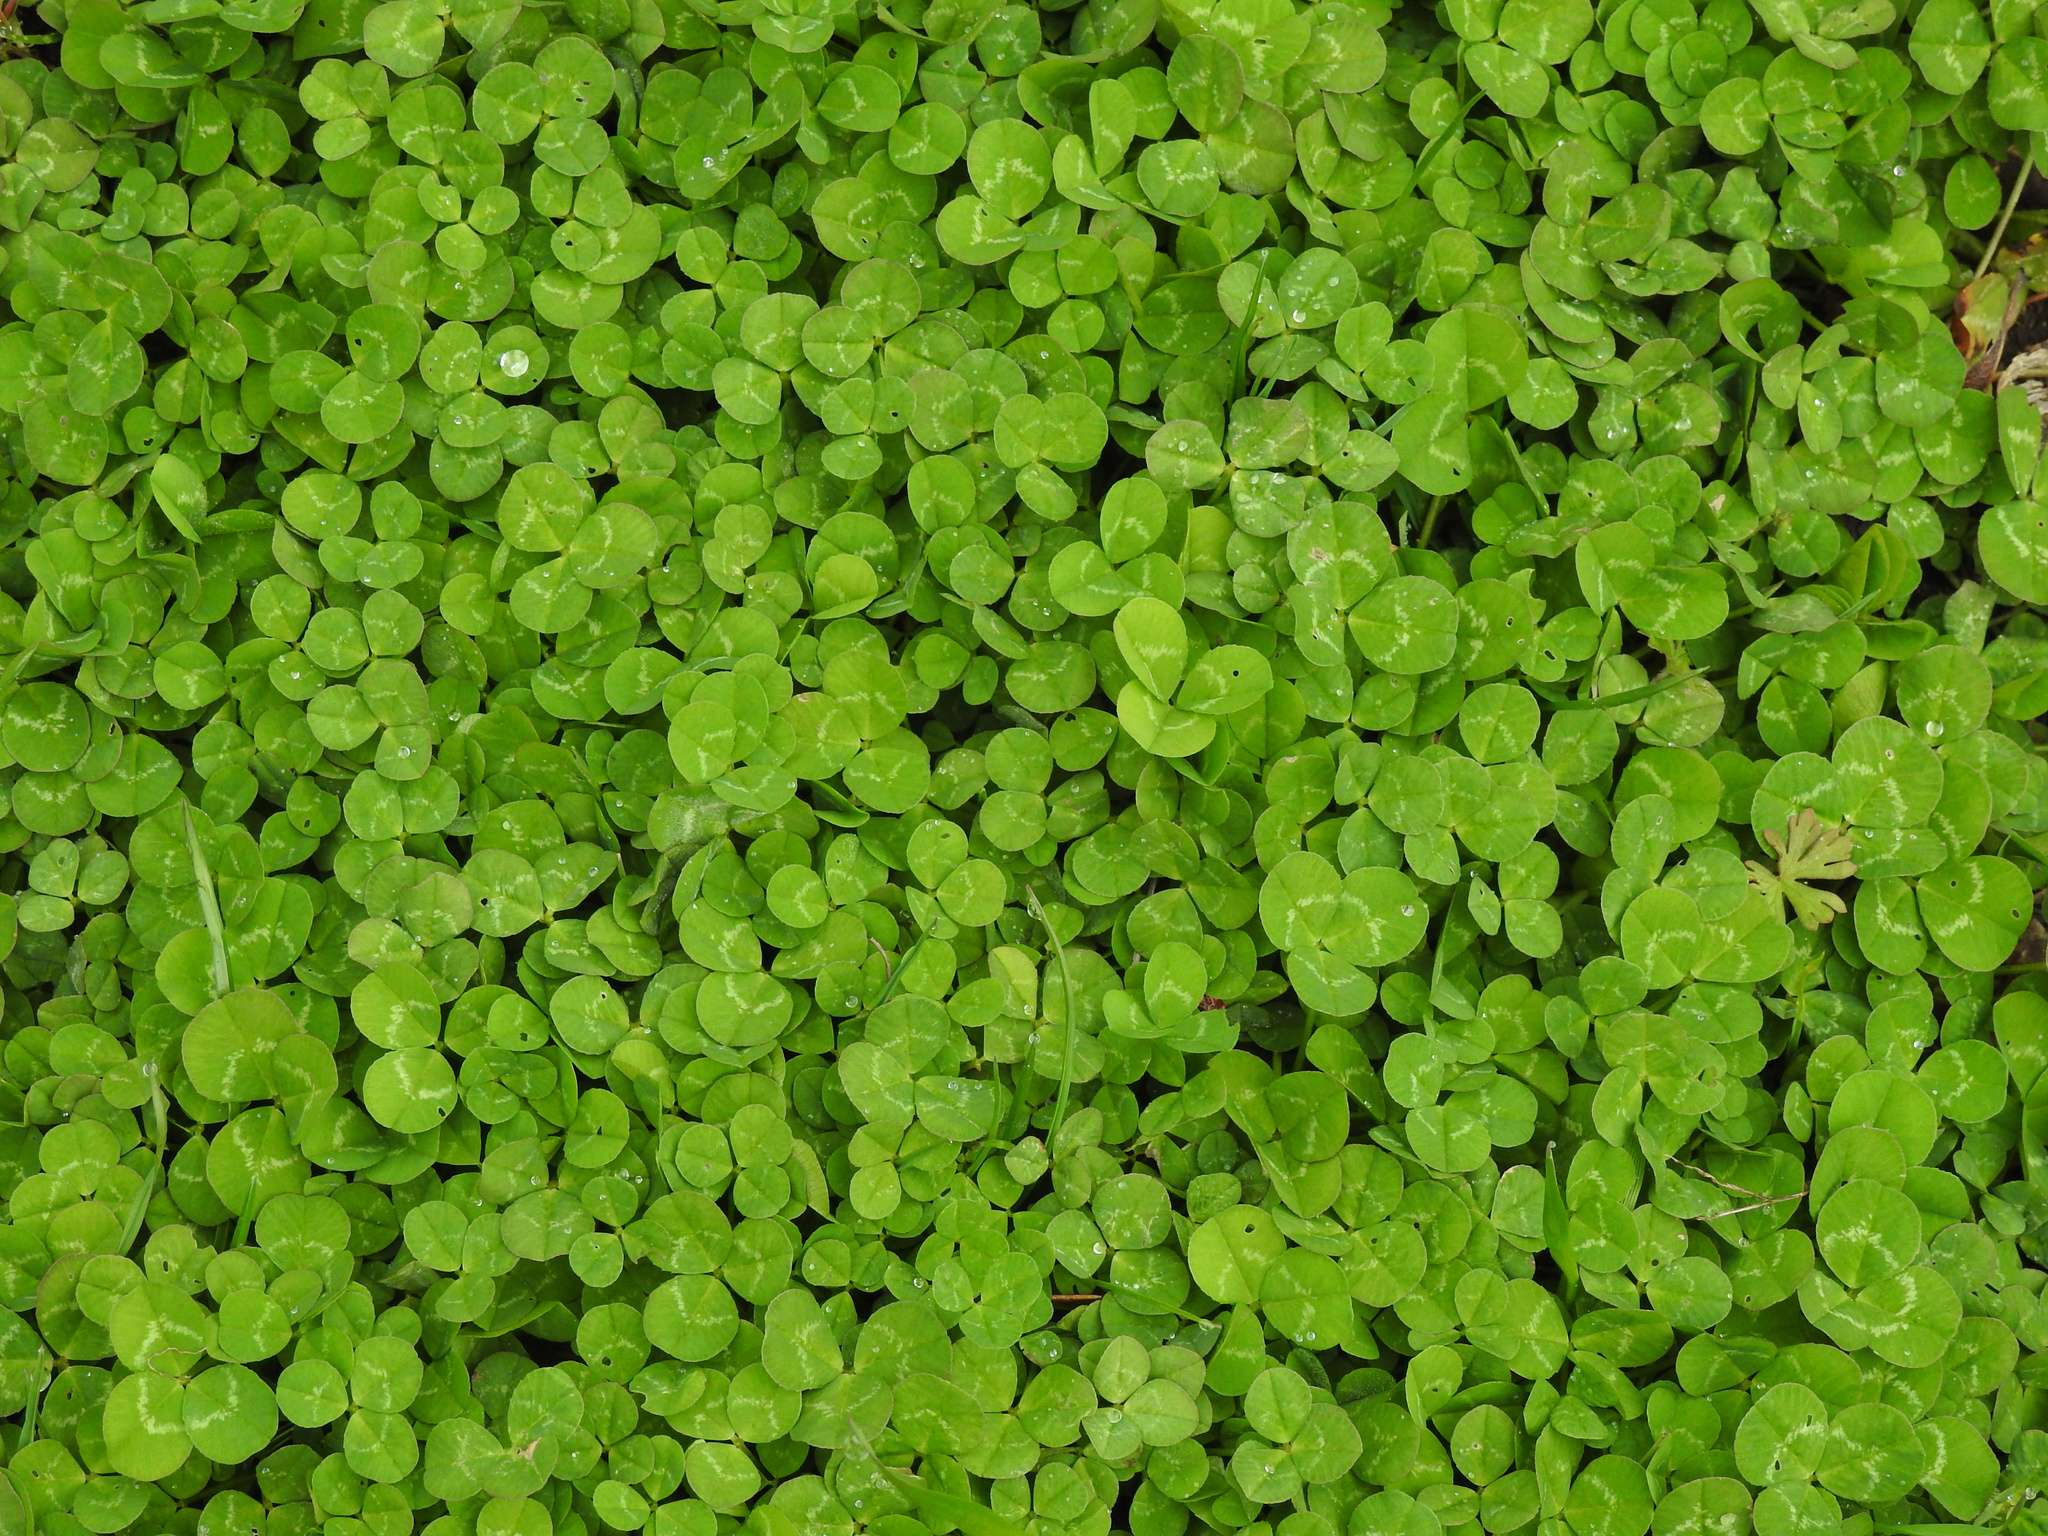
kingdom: Plantae
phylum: Tracheophyta
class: Magnoliopsida
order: Fabales
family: Fabaceae
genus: Trifolium
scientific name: Trifolium repens
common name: White clover
